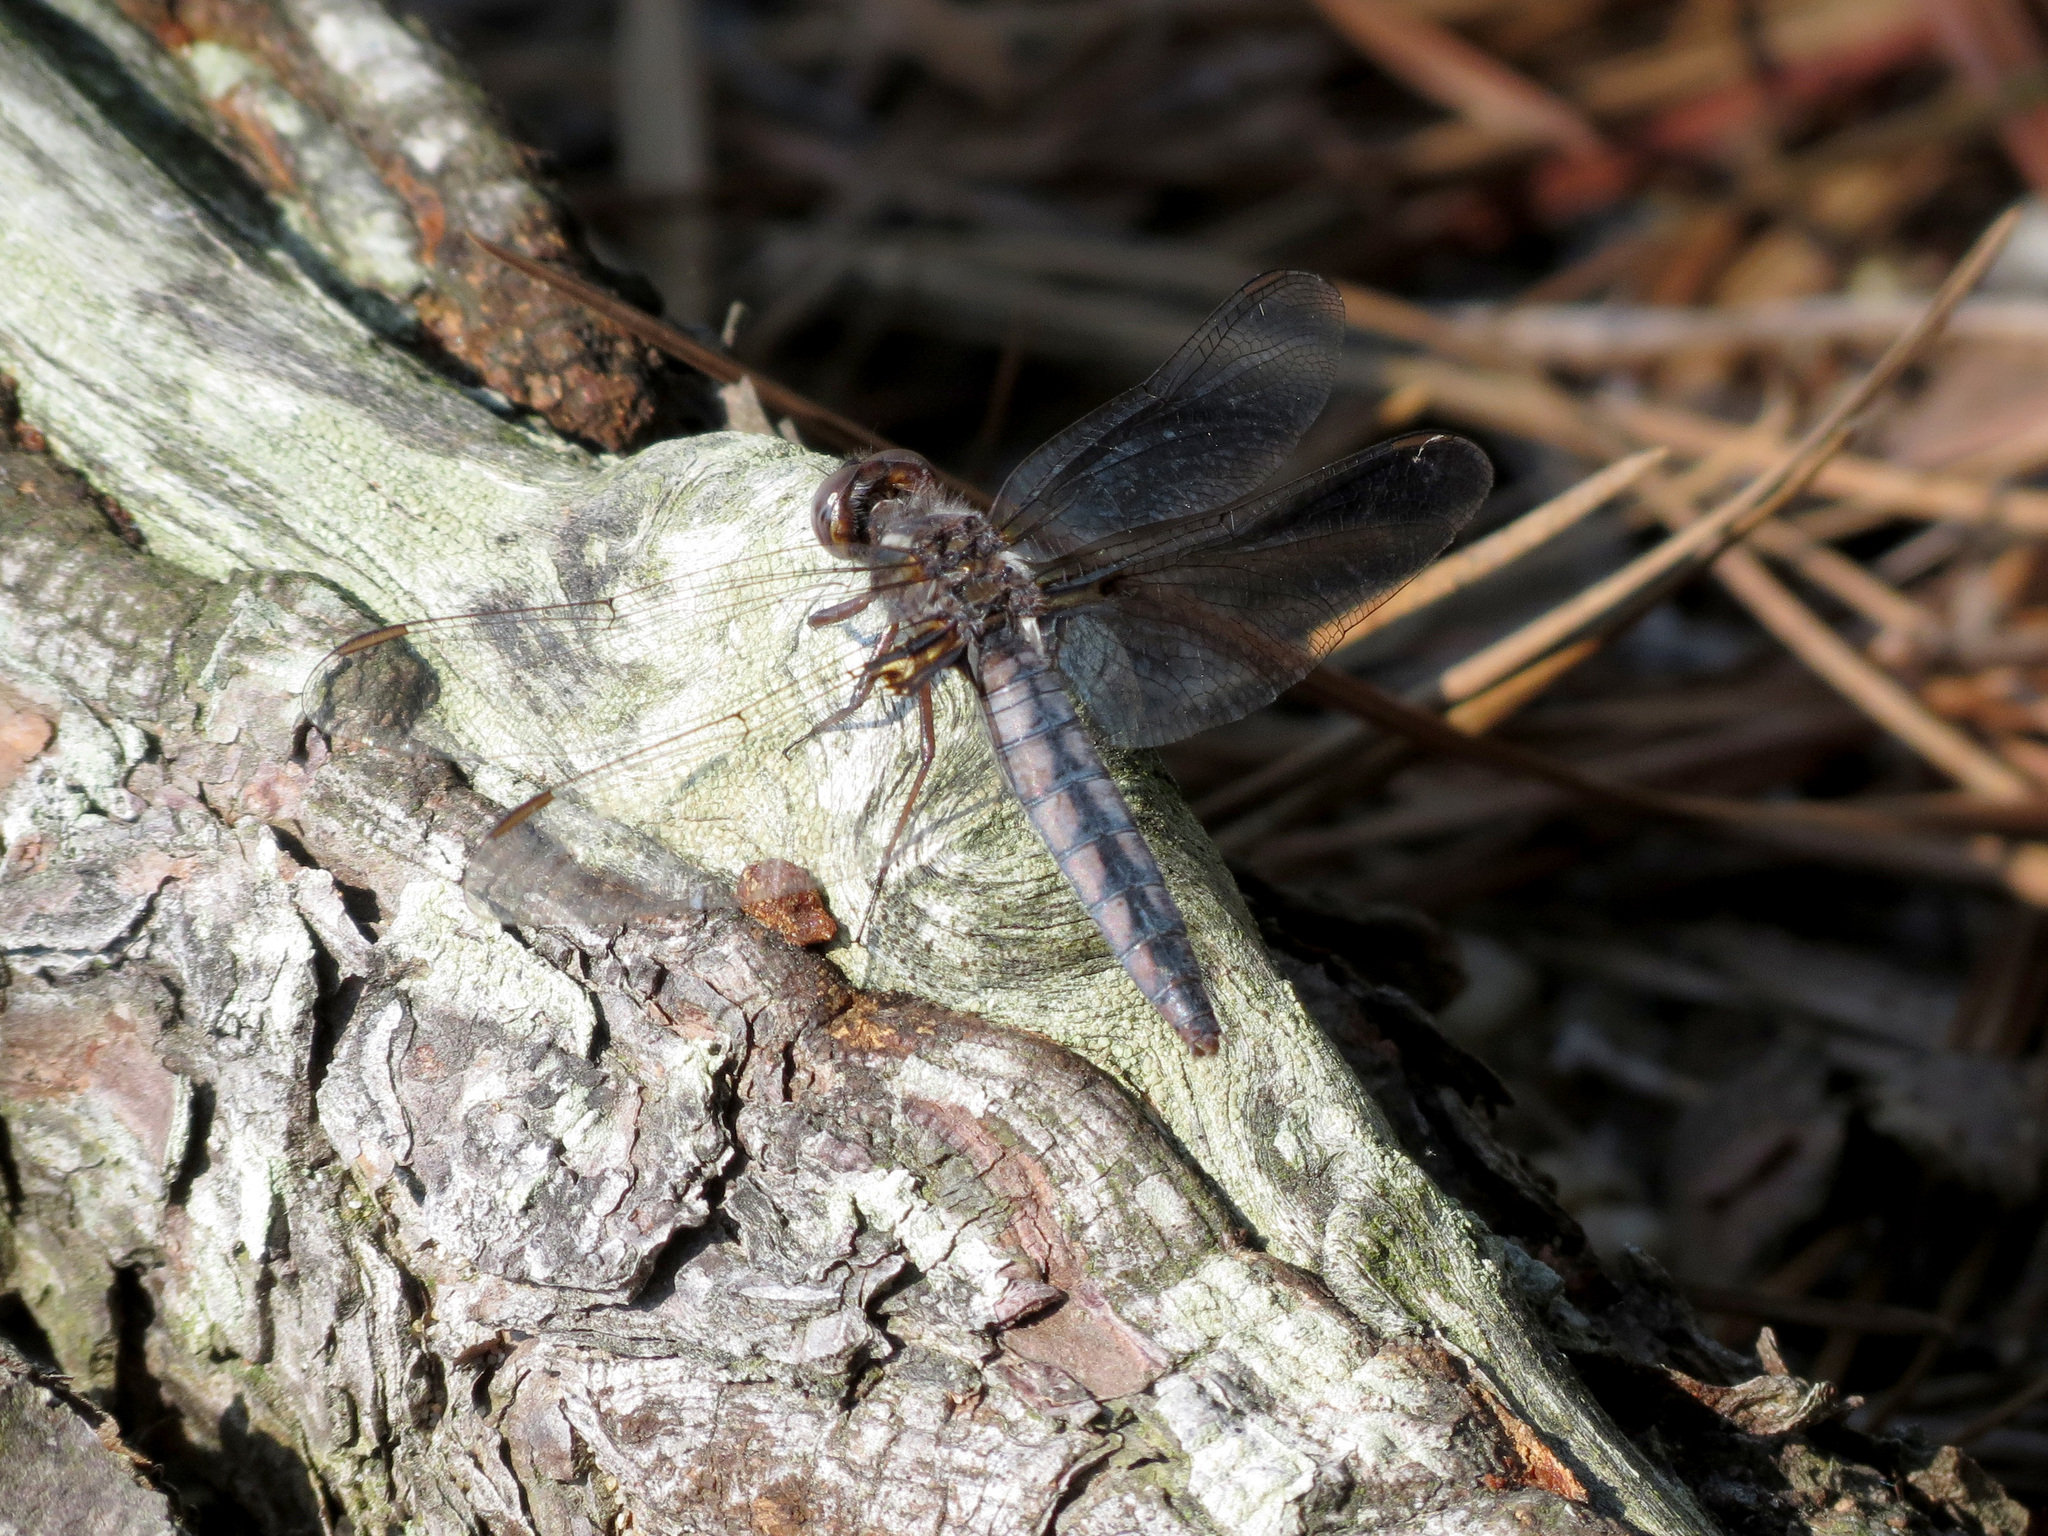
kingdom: Animalia
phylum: Arthropoda
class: Insecta
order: Odonata
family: Libellulidae
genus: Ladona
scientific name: Ladona deplanata
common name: Blue corporal
